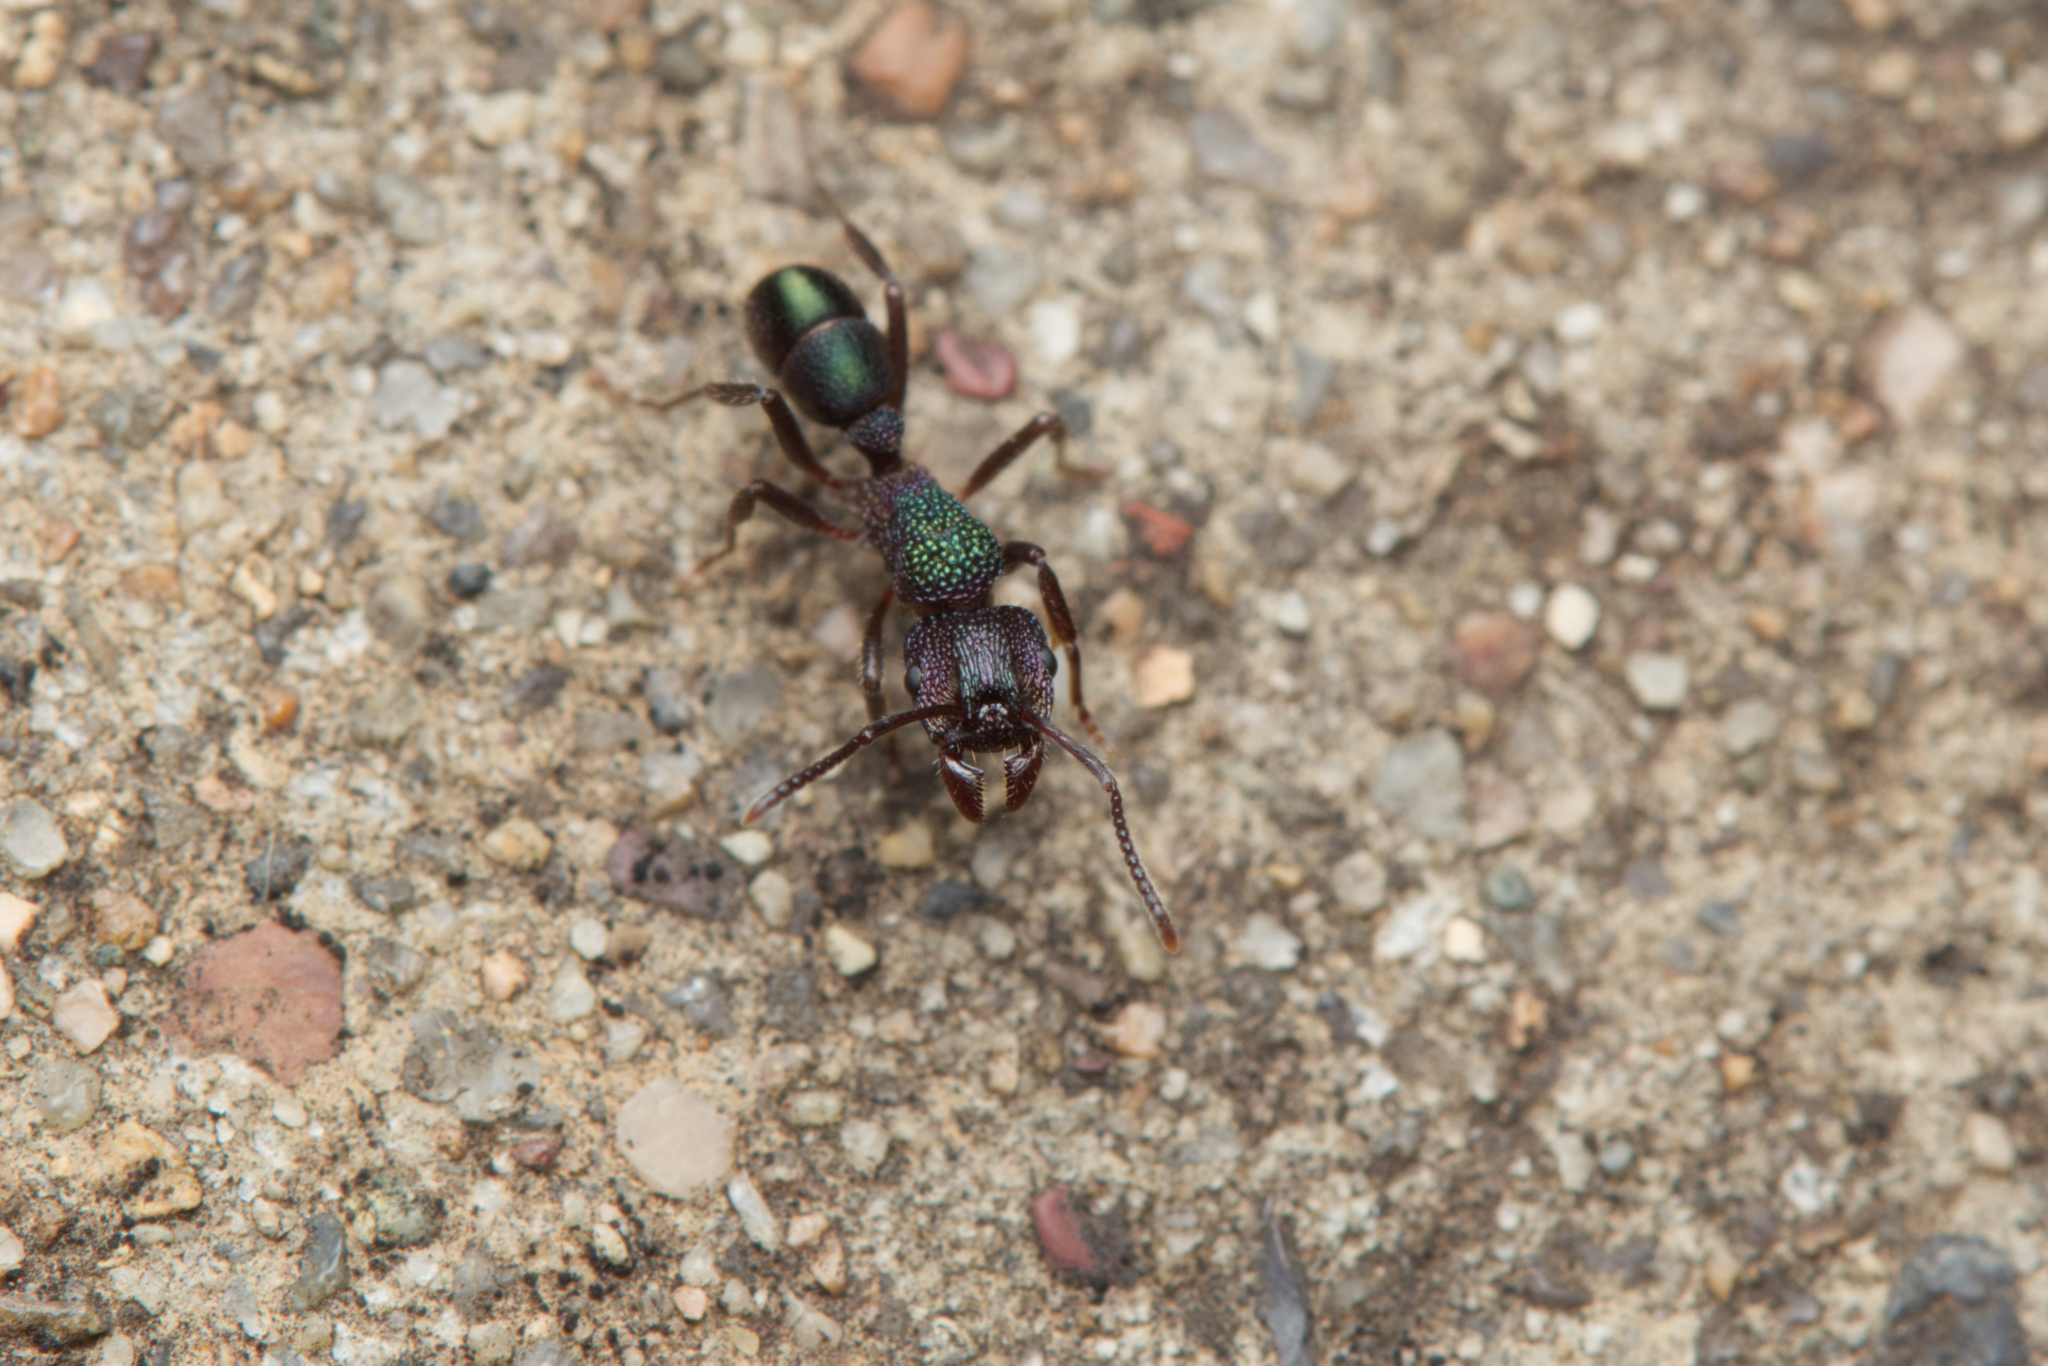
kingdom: Animalia
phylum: Arthropoda
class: Insecta
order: Hymenoptera
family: Formicidae
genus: Rhytidoponera
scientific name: Rhytidoponera metallica
